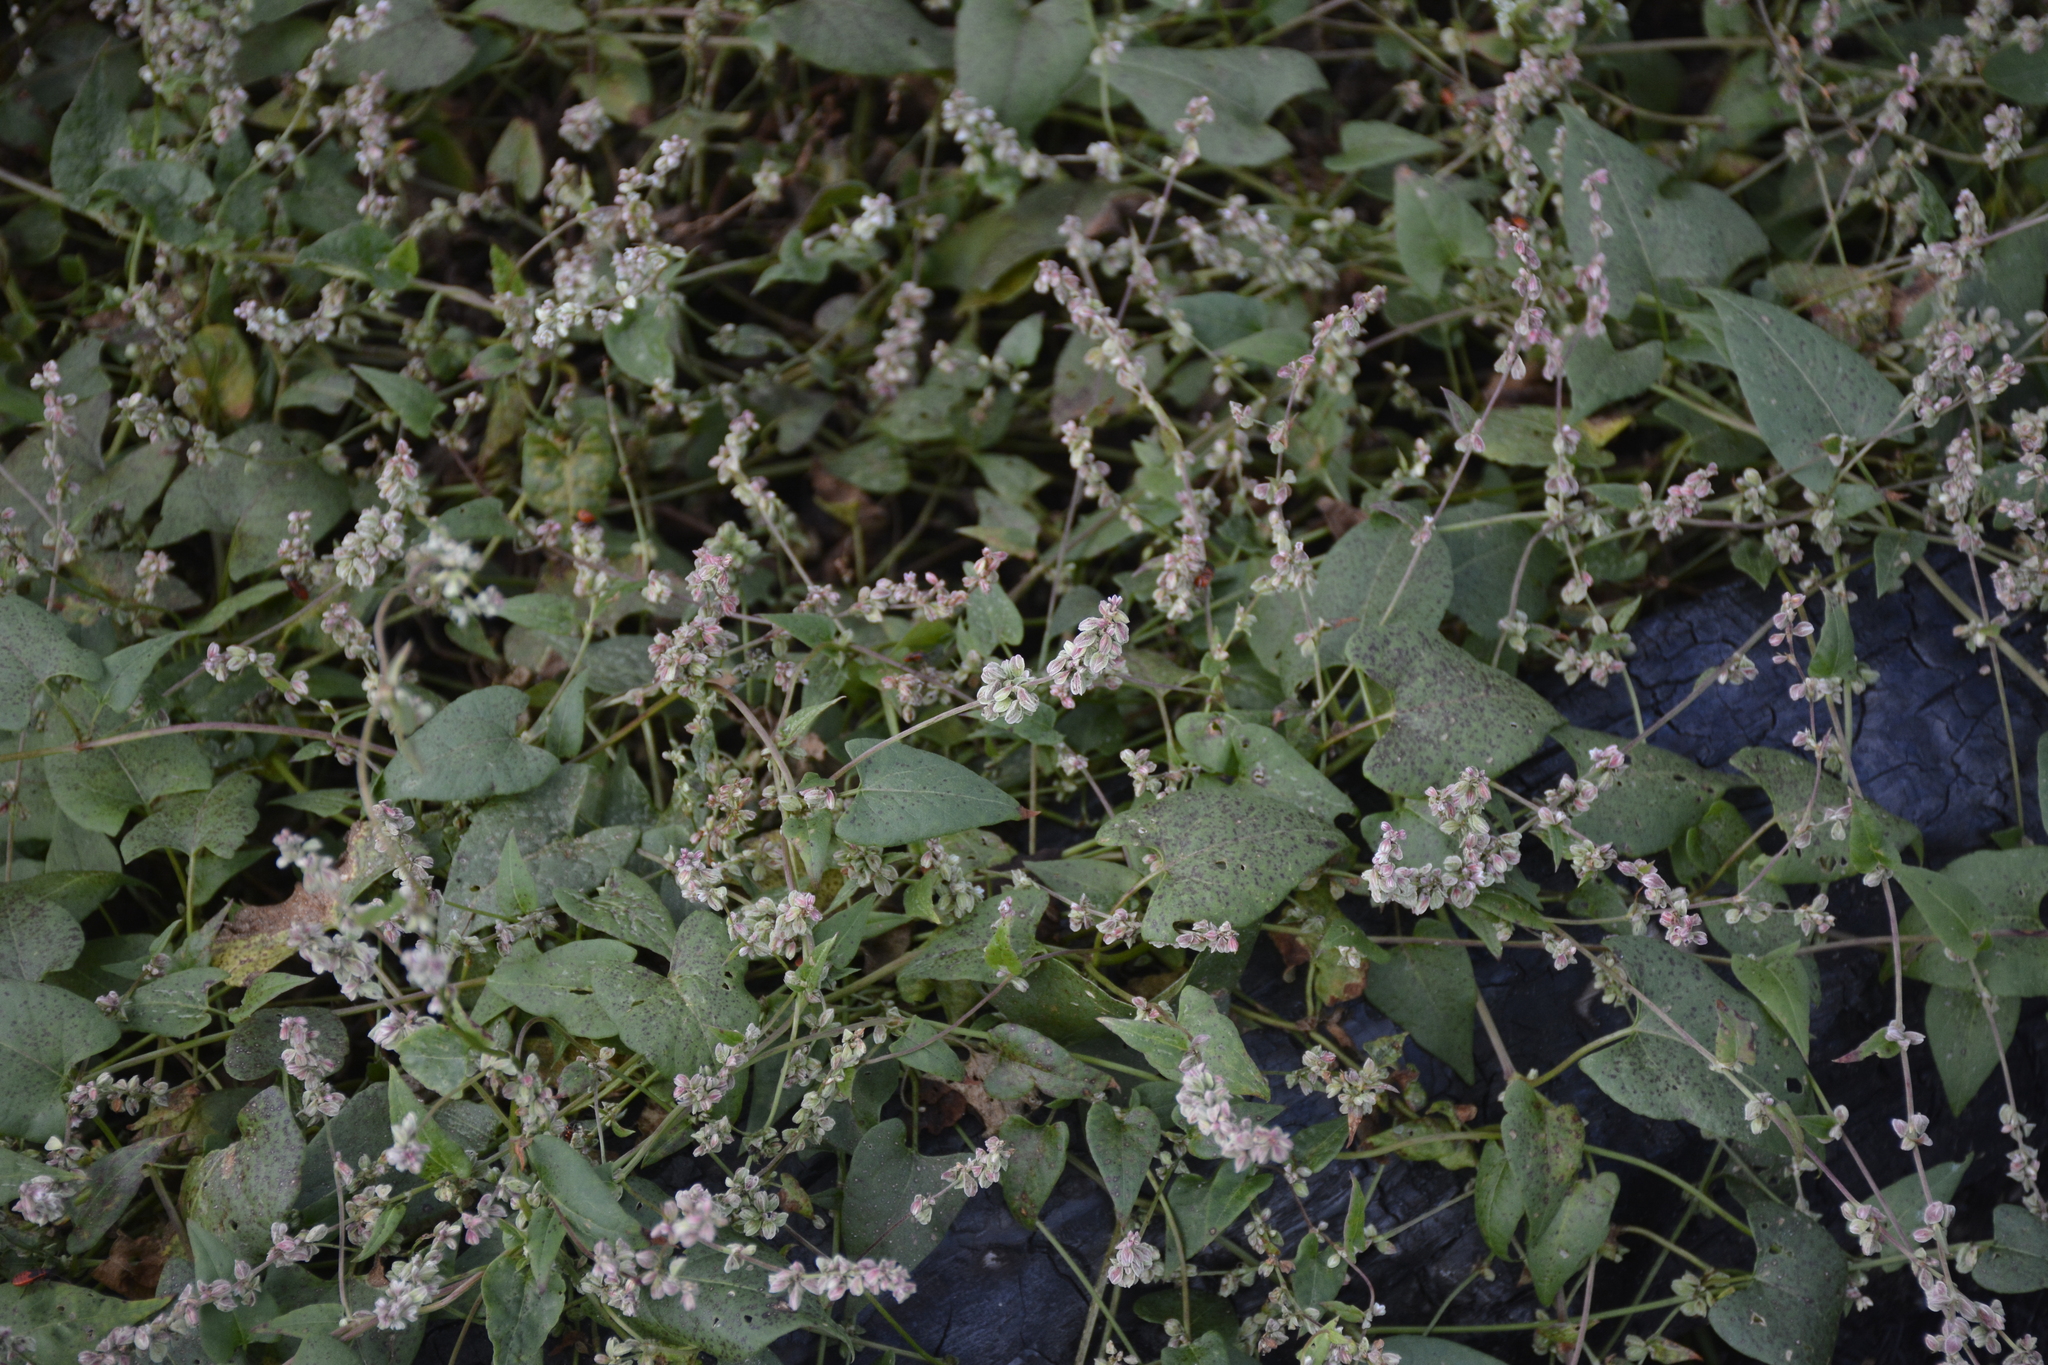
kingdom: Plantae
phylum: Tracheophyta
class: Magnoliopsida
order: Caryophyllales
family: Polygonaceae
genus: Fallopia
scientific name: Fallopia convolvulus
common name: Black bindweed
